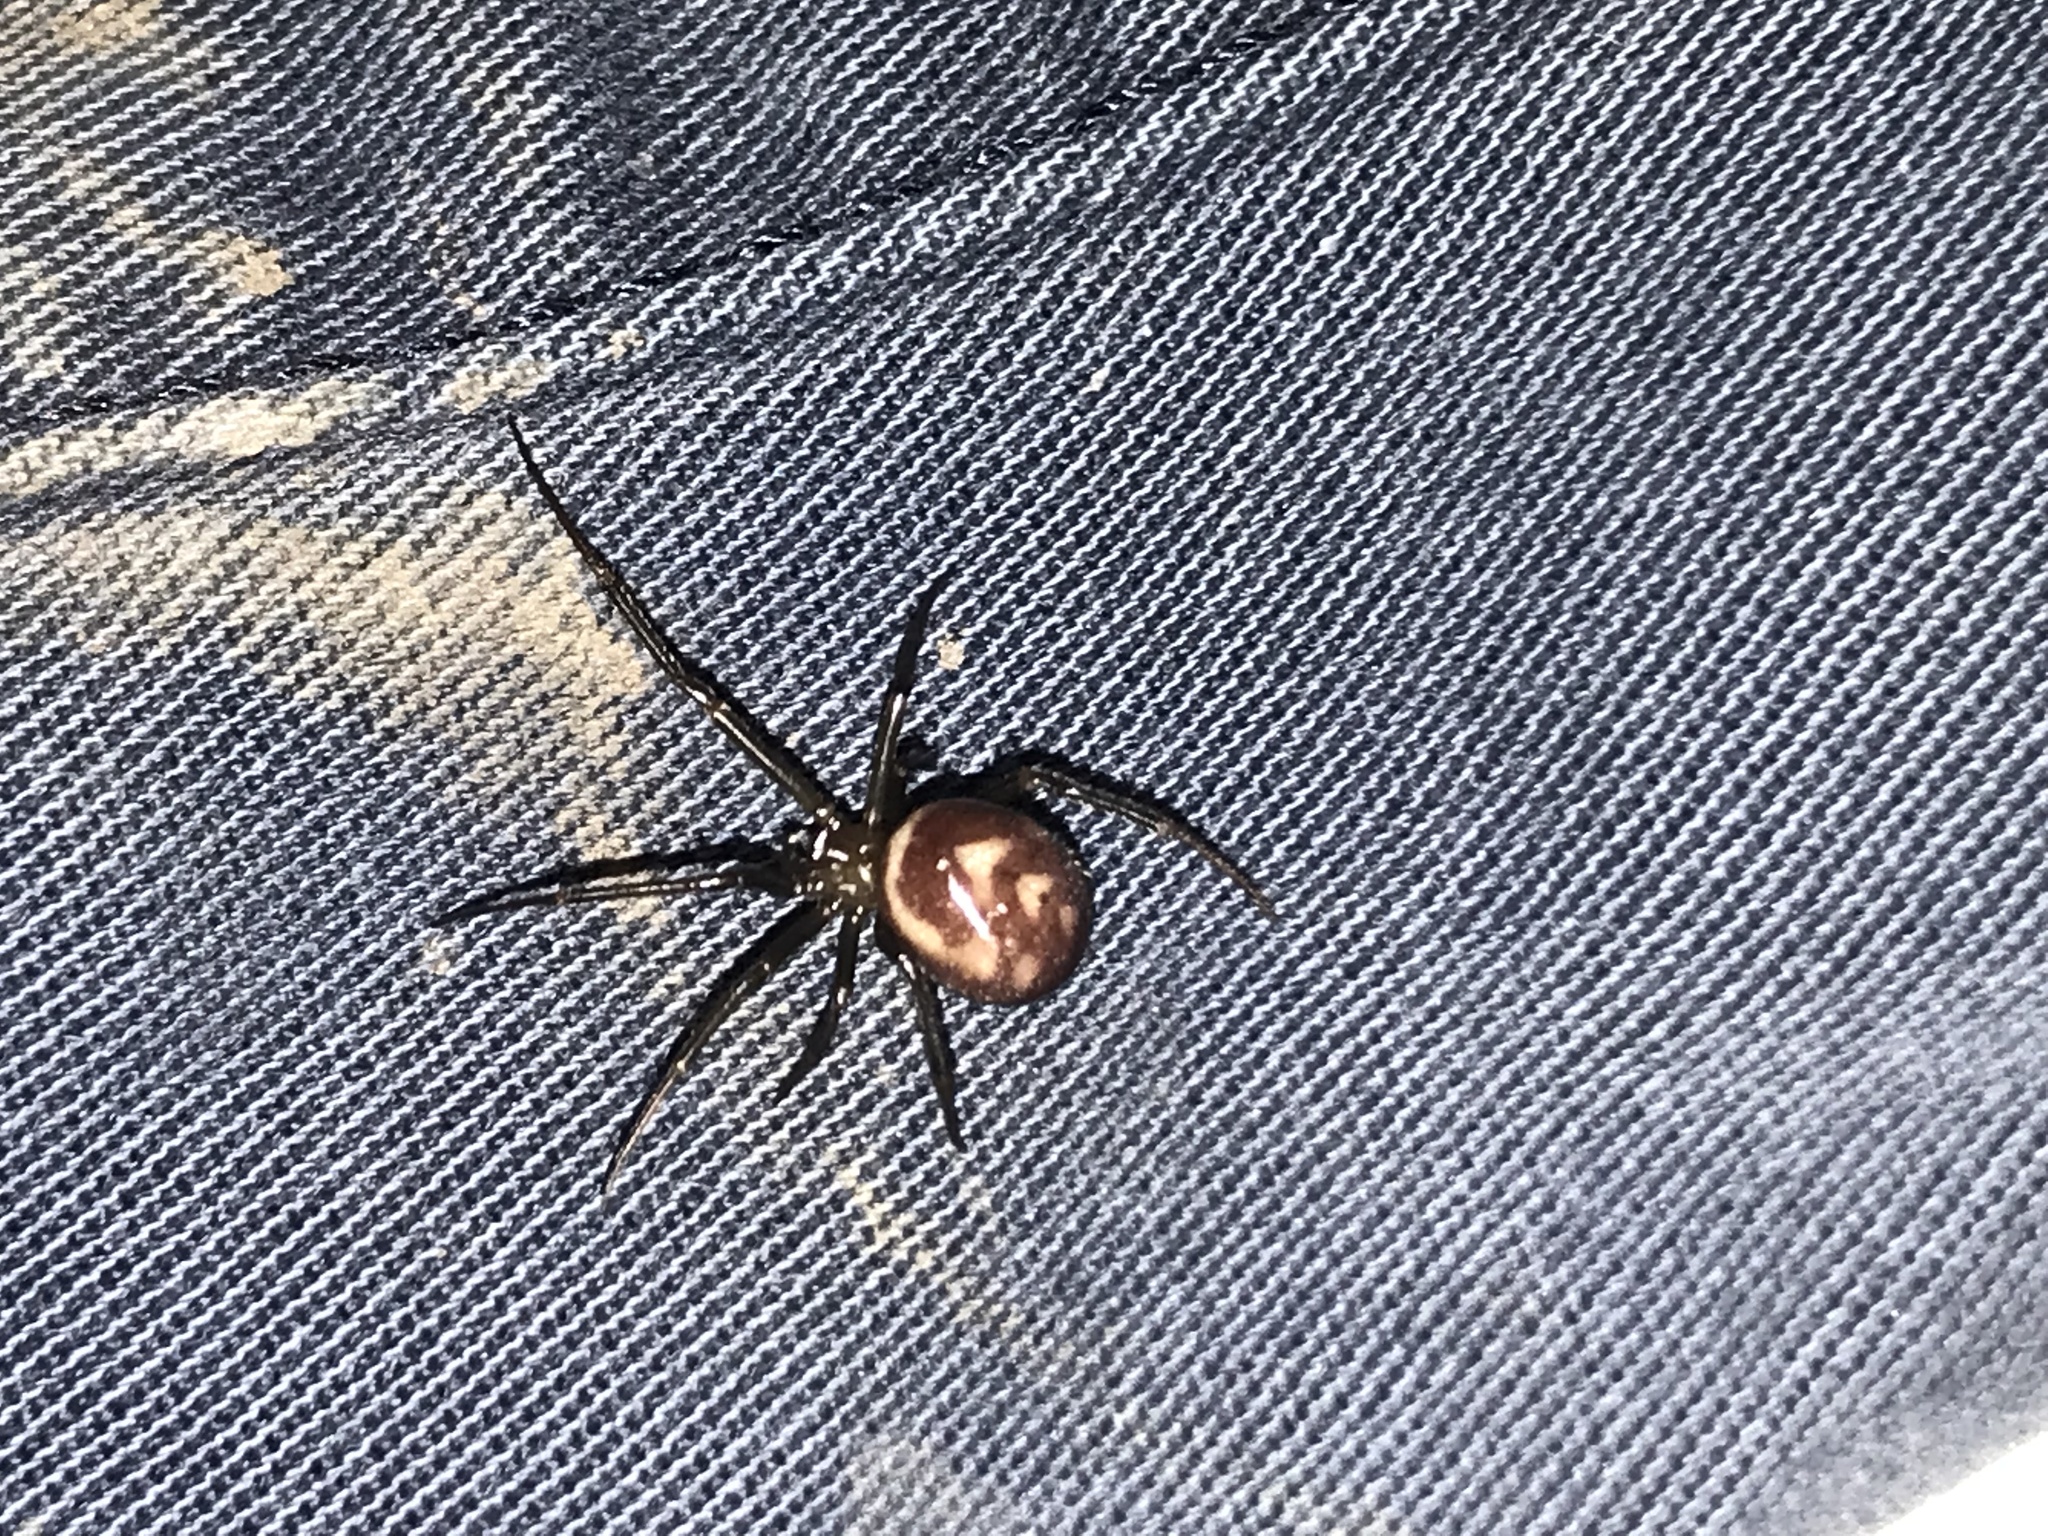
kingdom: Animalia
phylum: Arthropoda
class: Arachnida
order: Araneae
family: Theridiidae
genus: Steatoda
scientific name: Steatoda grossa
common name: False black widow
